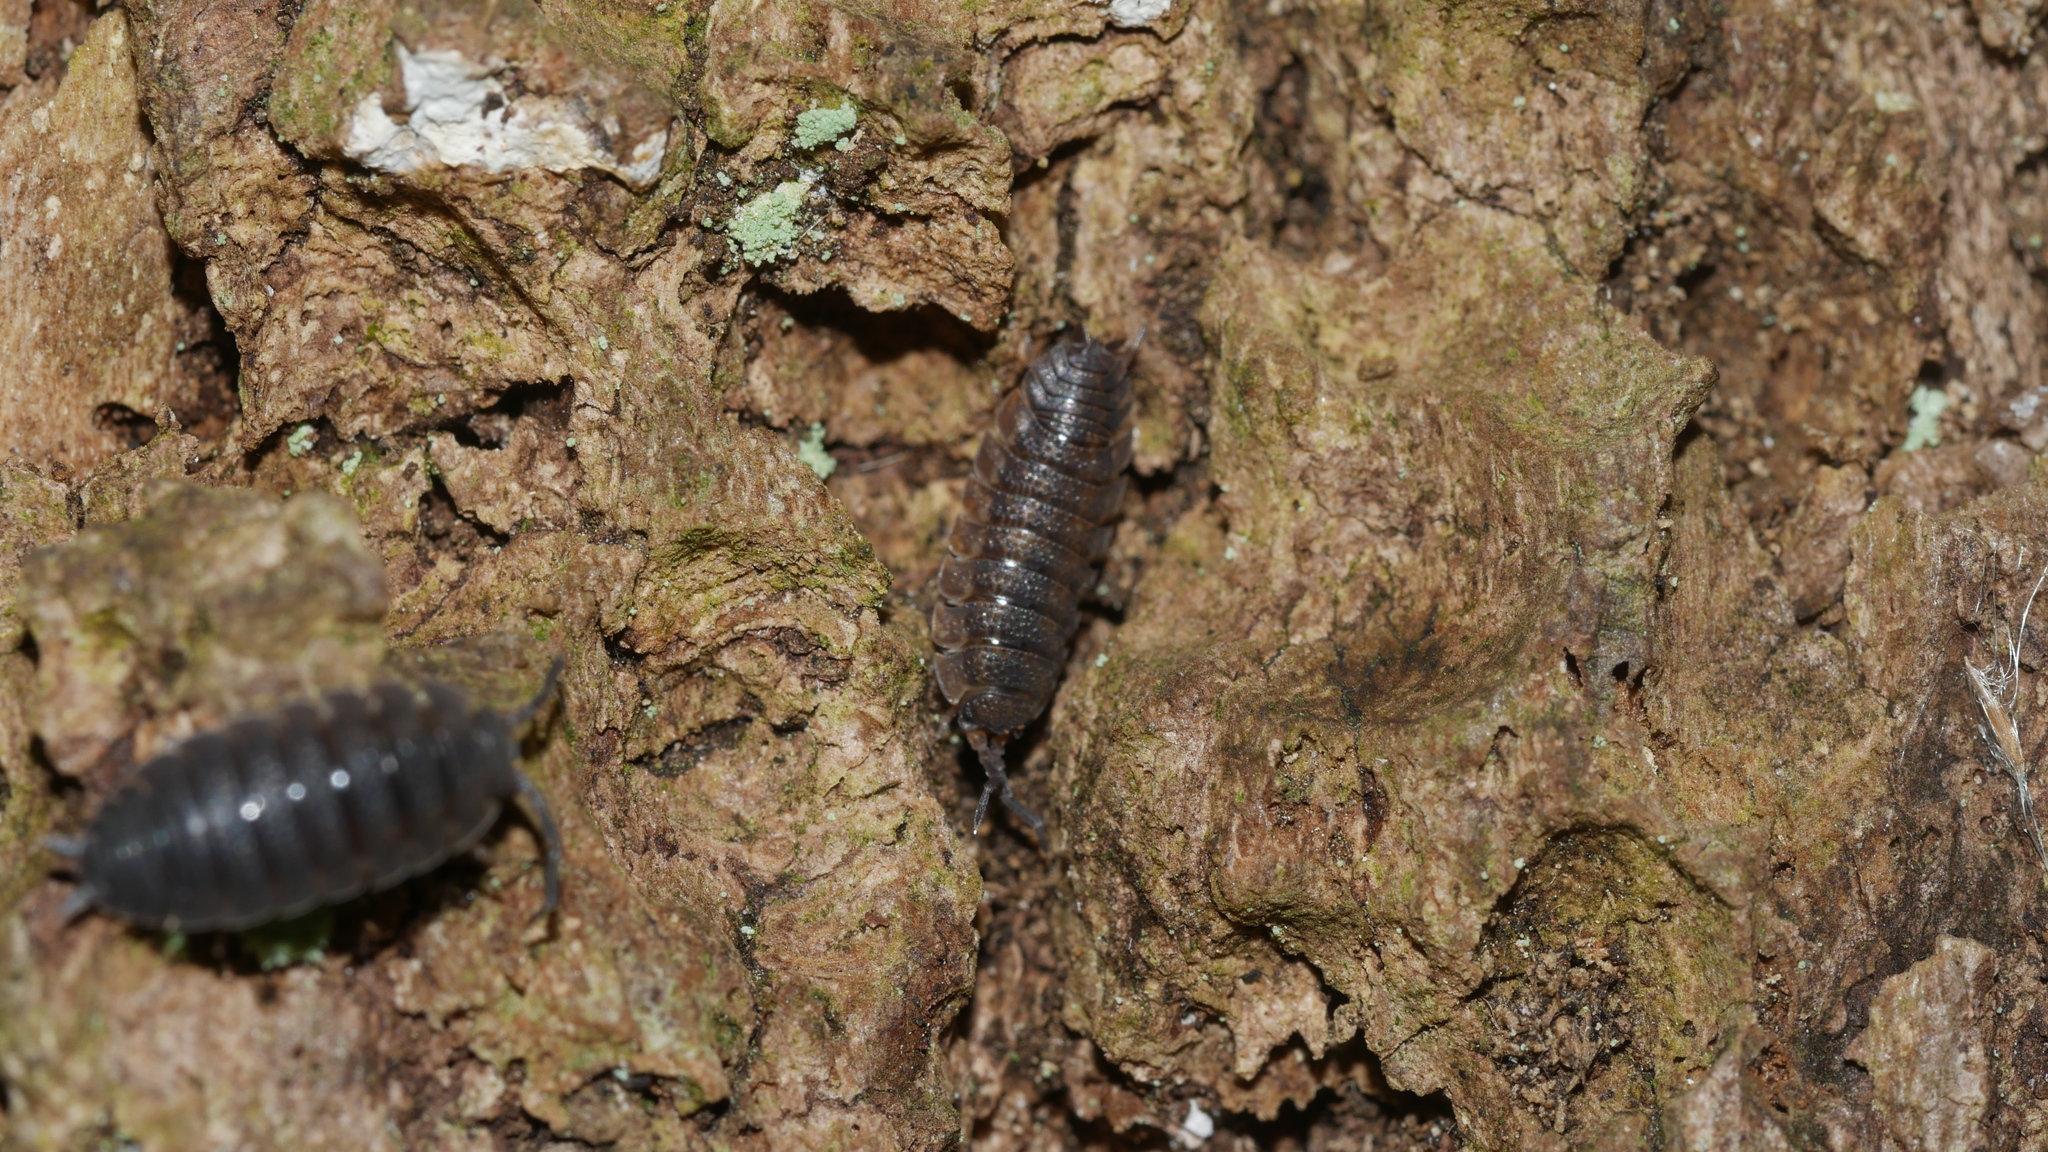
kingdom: Animalia
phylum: Arthropoda
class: Malacostraca
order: Isopoda
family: Porcellionidae
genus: Porcellio
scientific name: Porcellio scaber
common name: Common rough woodlouse
